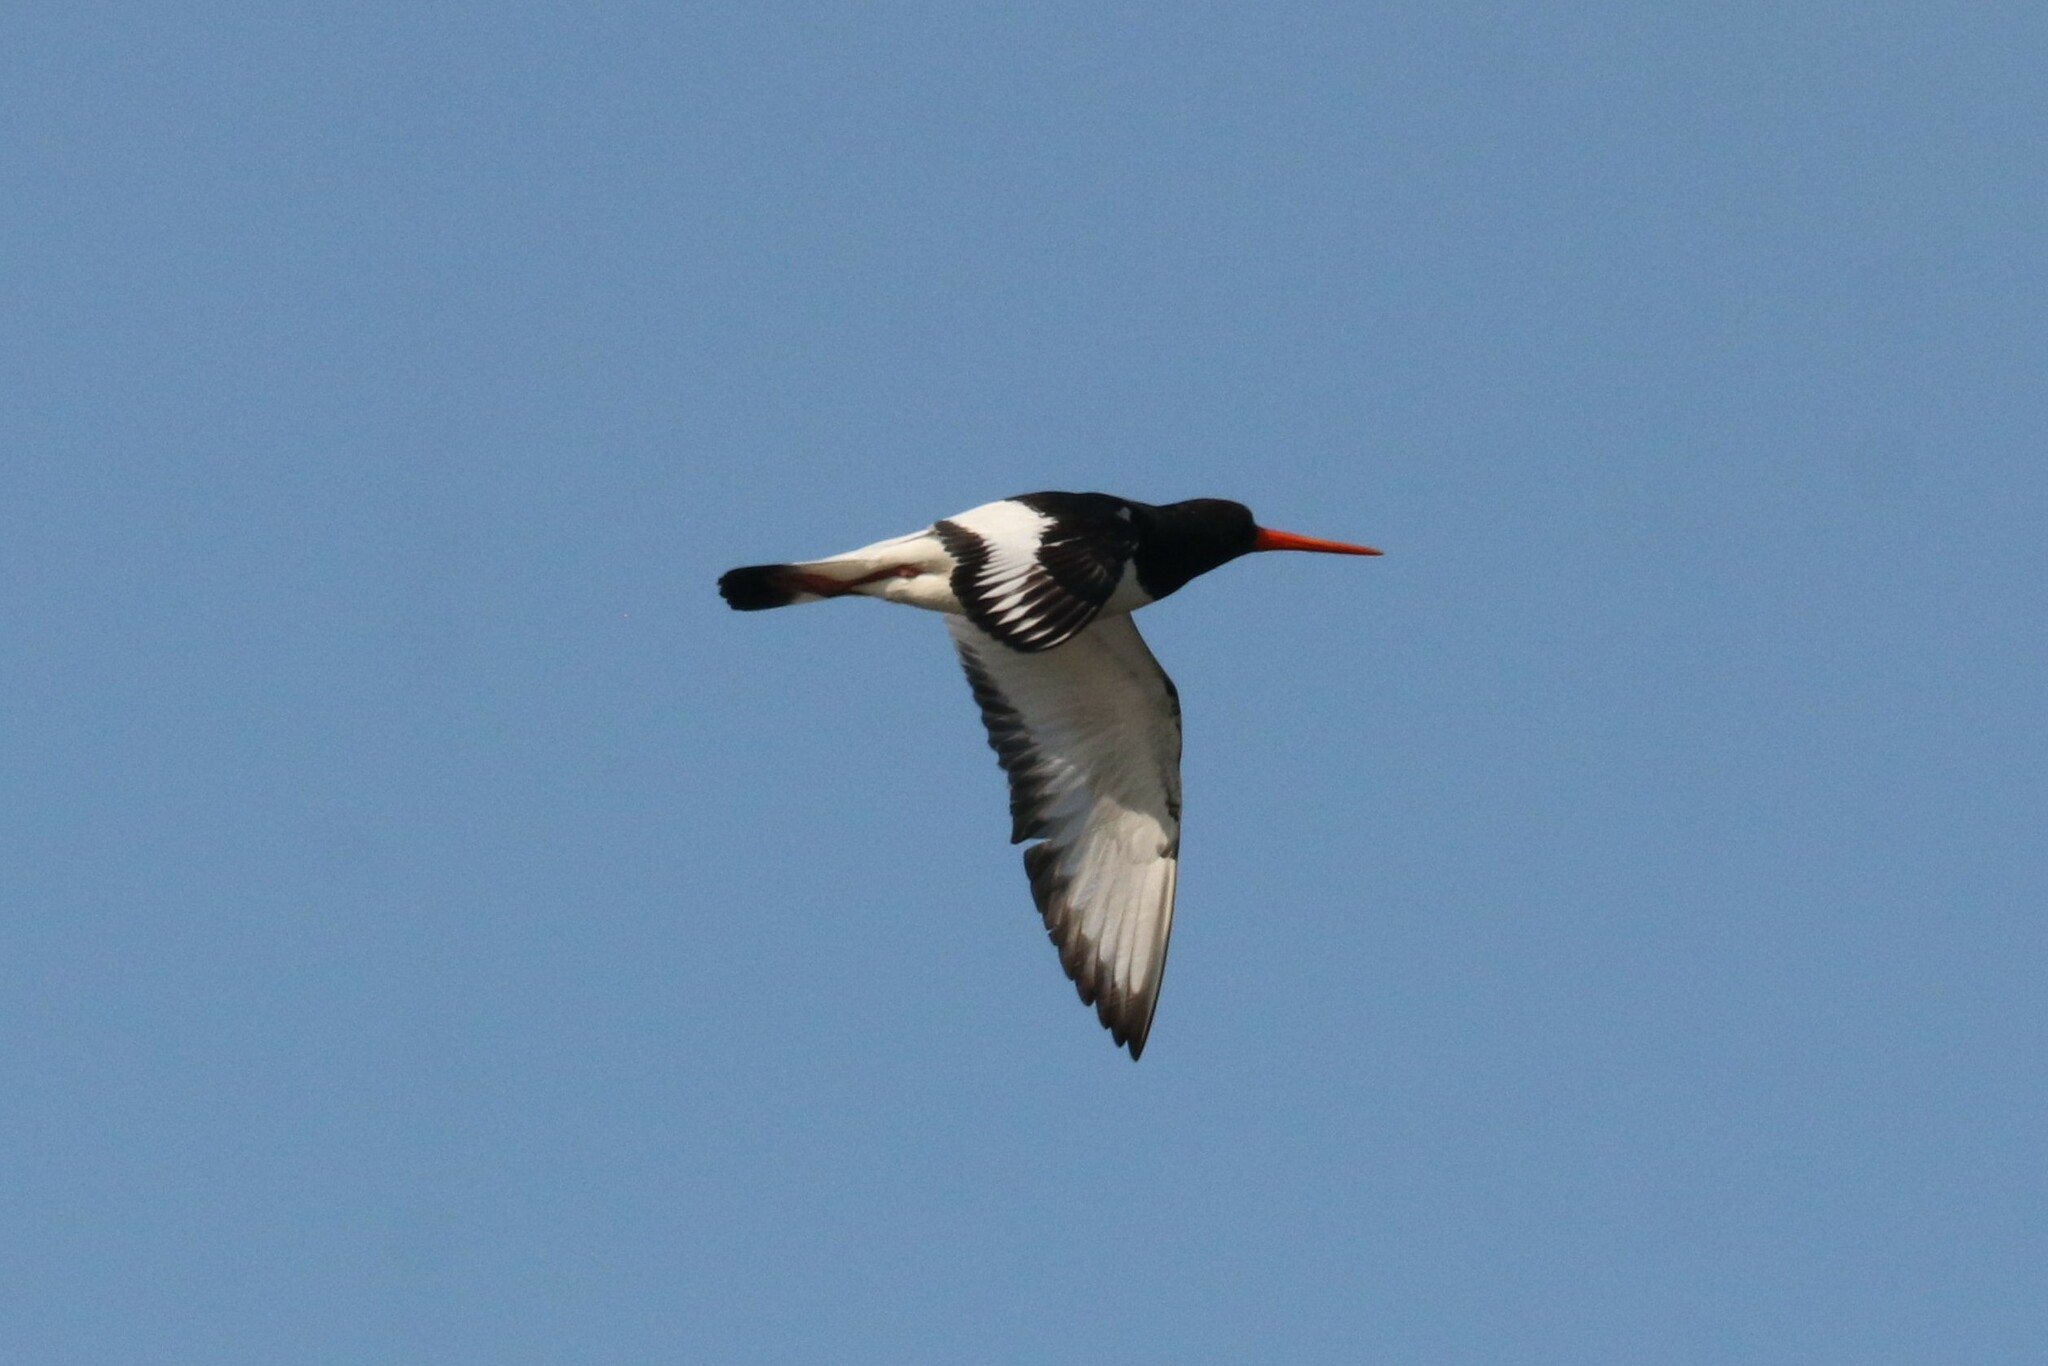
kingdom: Animalia
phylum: Chordata
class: Aves
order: Charadriiformes
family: Haematopodidae
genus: Haematopus
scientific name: Haematopus ostralegus
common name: Eurasian oystercatcher
